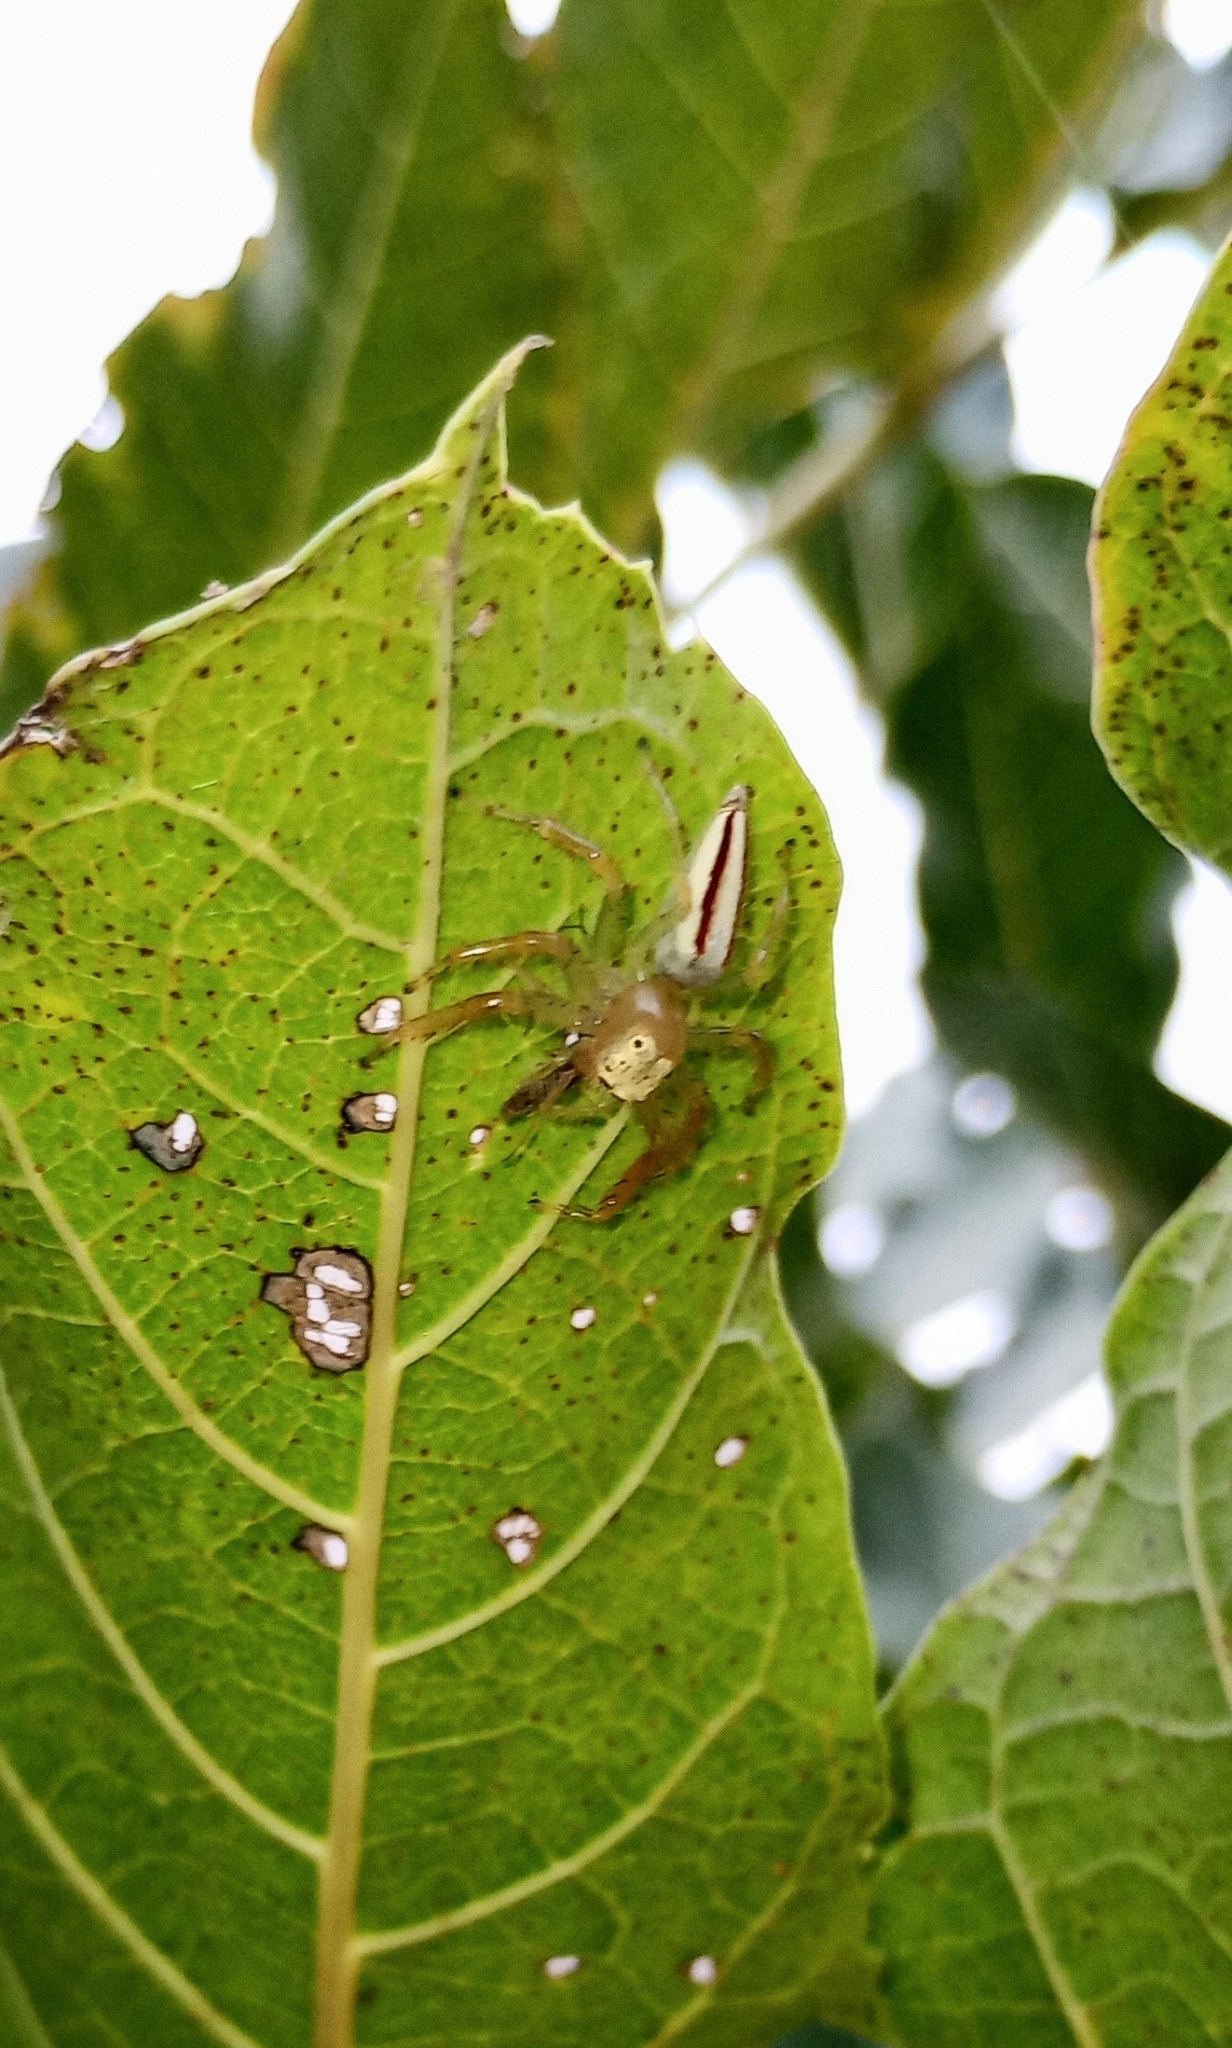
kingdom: Animalia
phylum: Arthropoda
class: Arachnida
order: Araneae
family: Salticidae
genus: Telamonia
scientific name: Telamonia dimidiata
